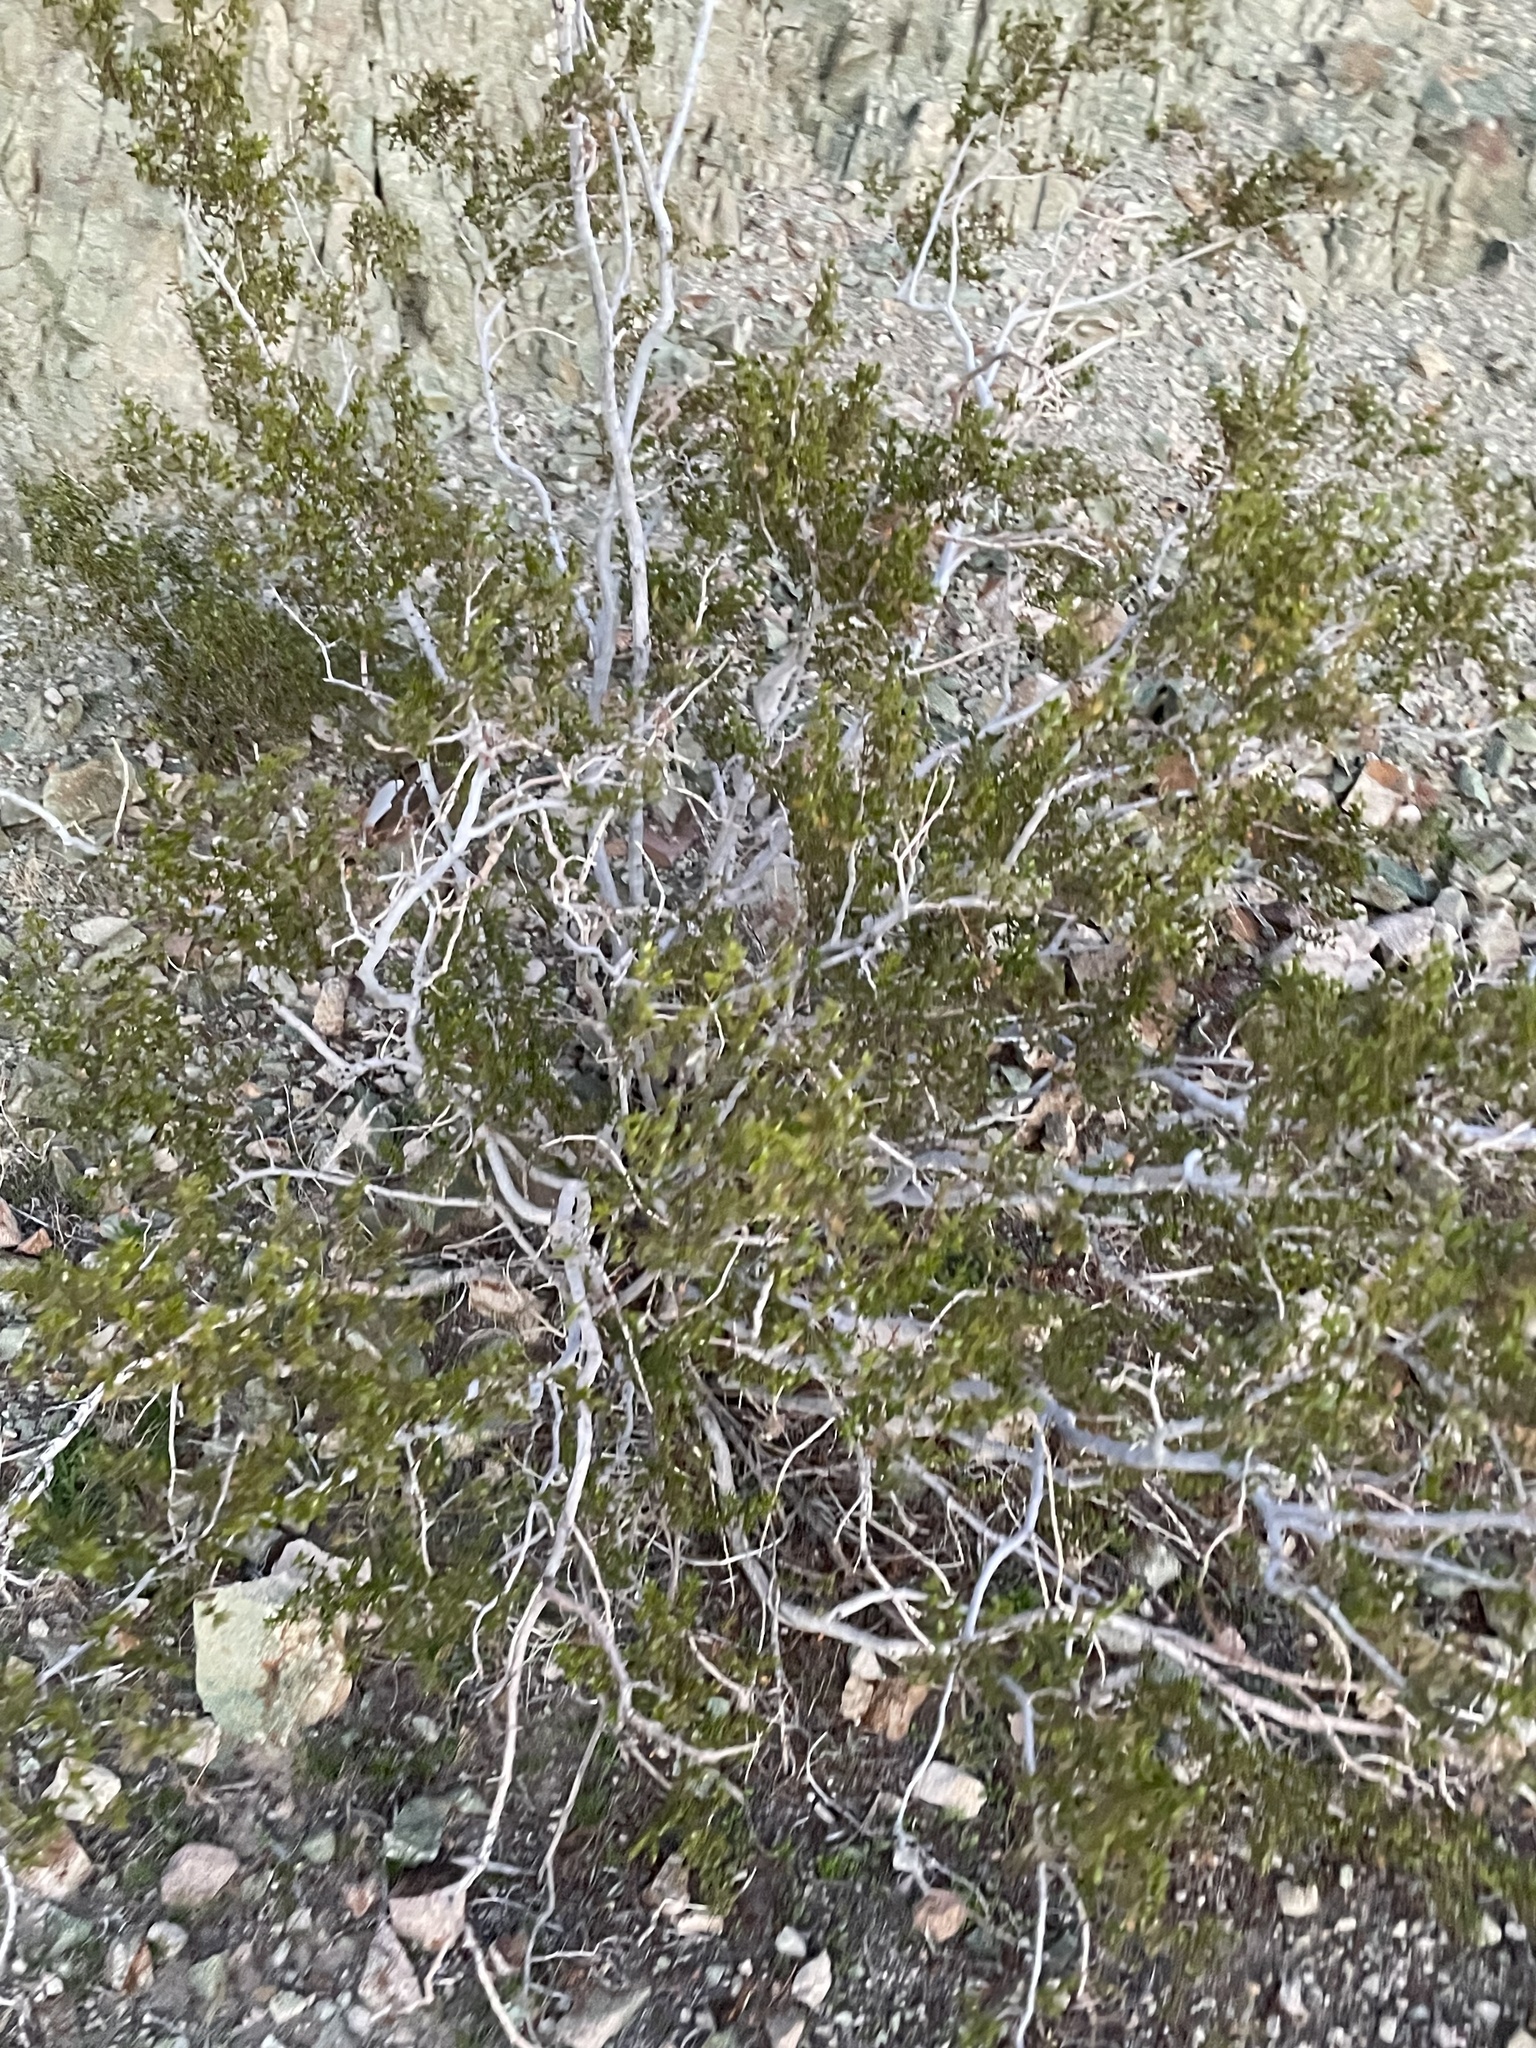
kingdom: Plantae
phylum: Tracheophyta
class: Magnoliopsida
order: Zygophyllales
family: Zygophyllaceae
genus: Larrea
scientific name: Larrea tridentata
